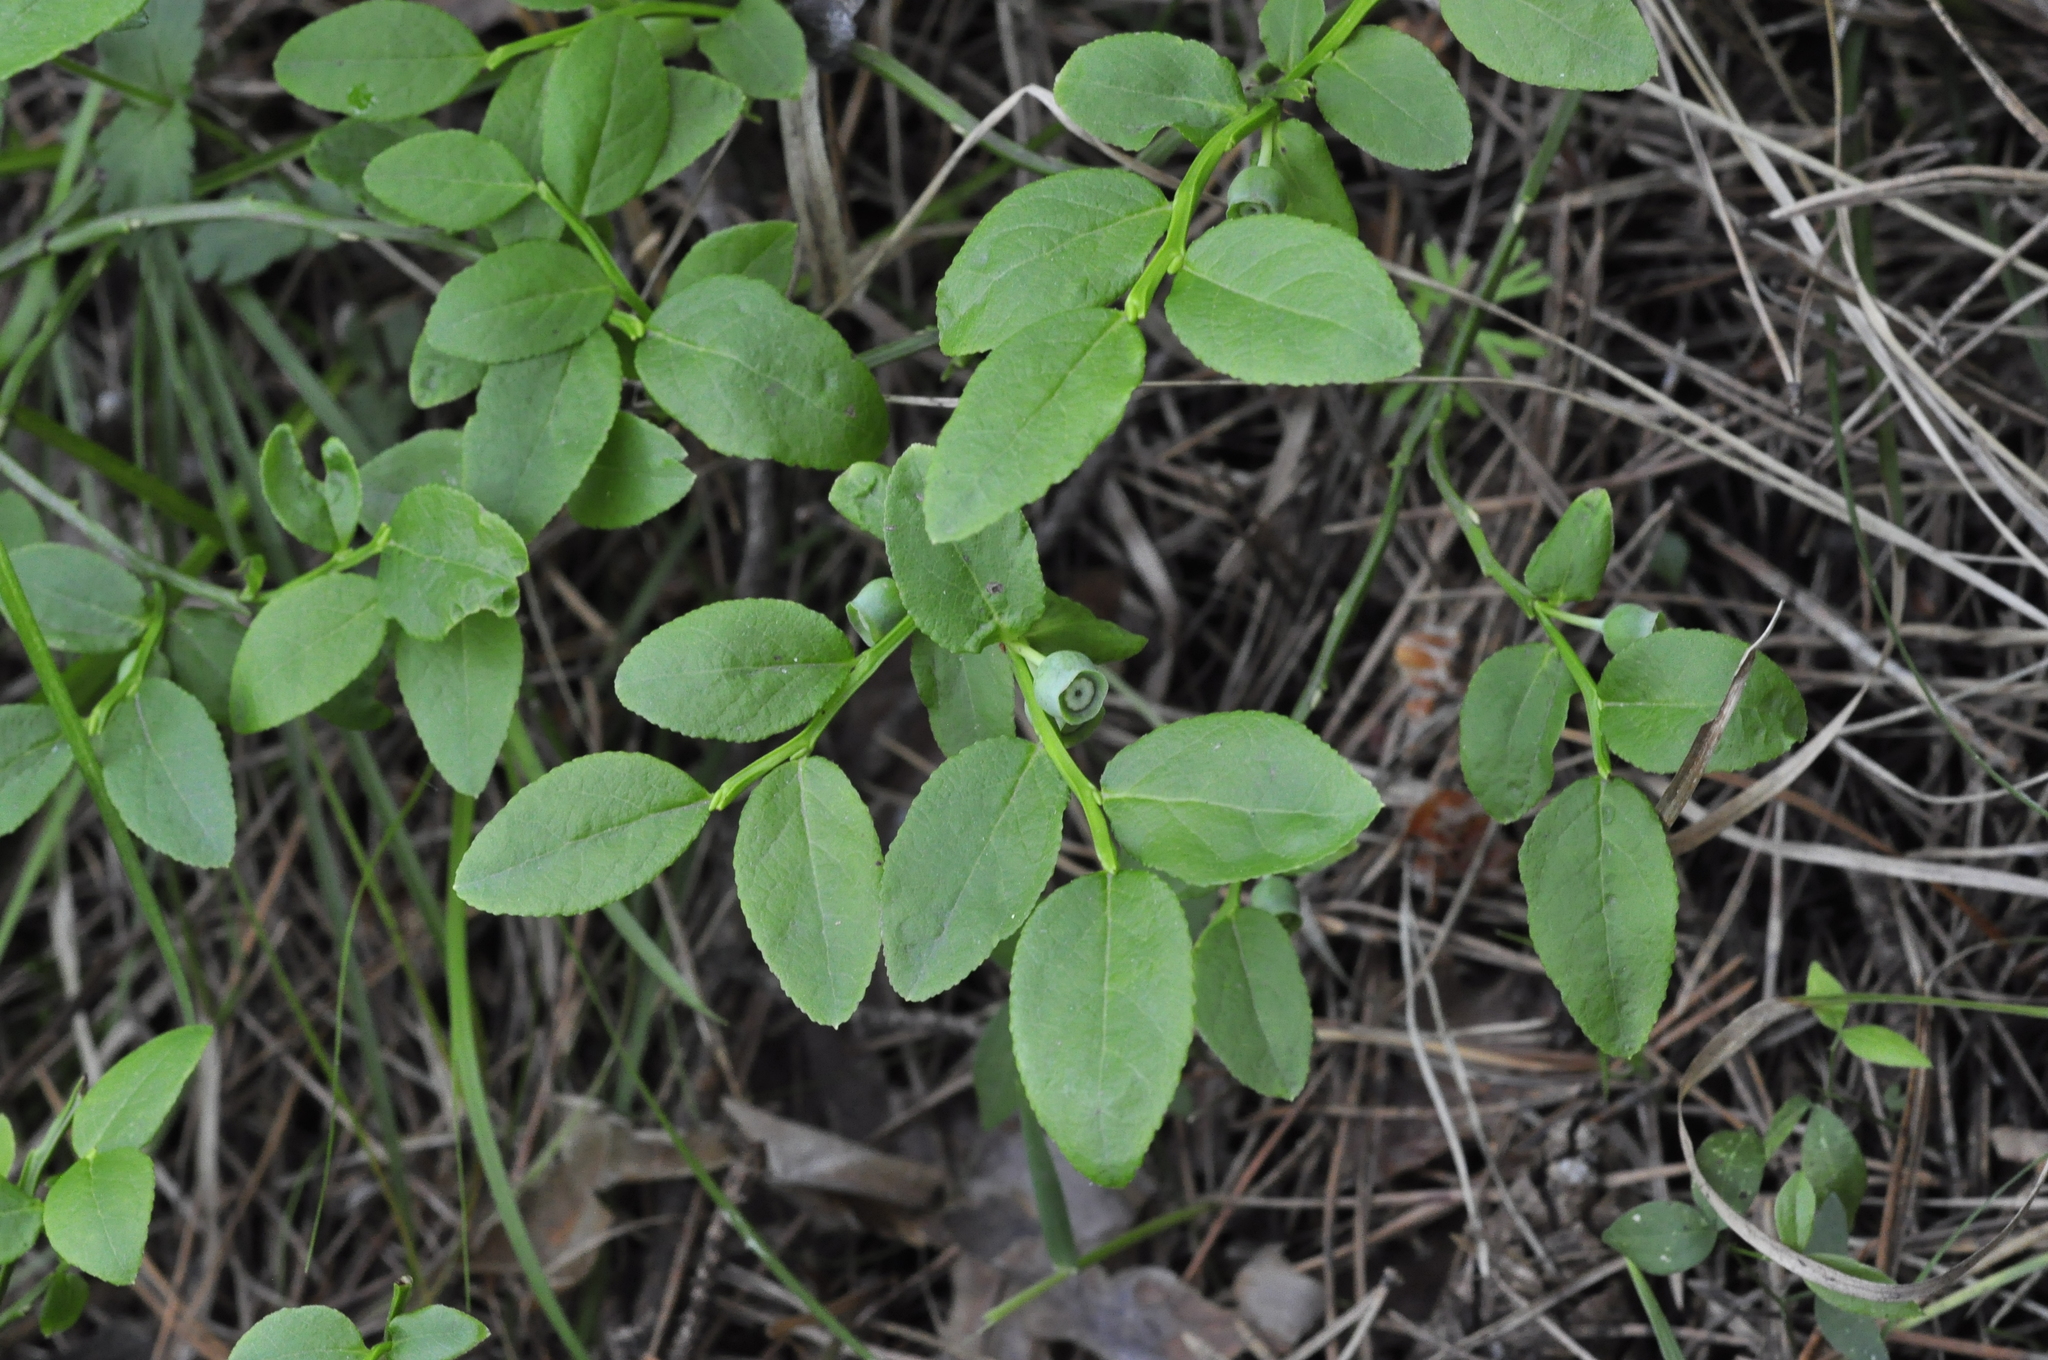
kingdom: Plantae
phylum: Tracheophyta
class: Magnoliopsida
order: Ericales
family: Ericaceae
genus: Vaccinium
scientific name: Vaccinium myrtillus
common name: Bilberry
